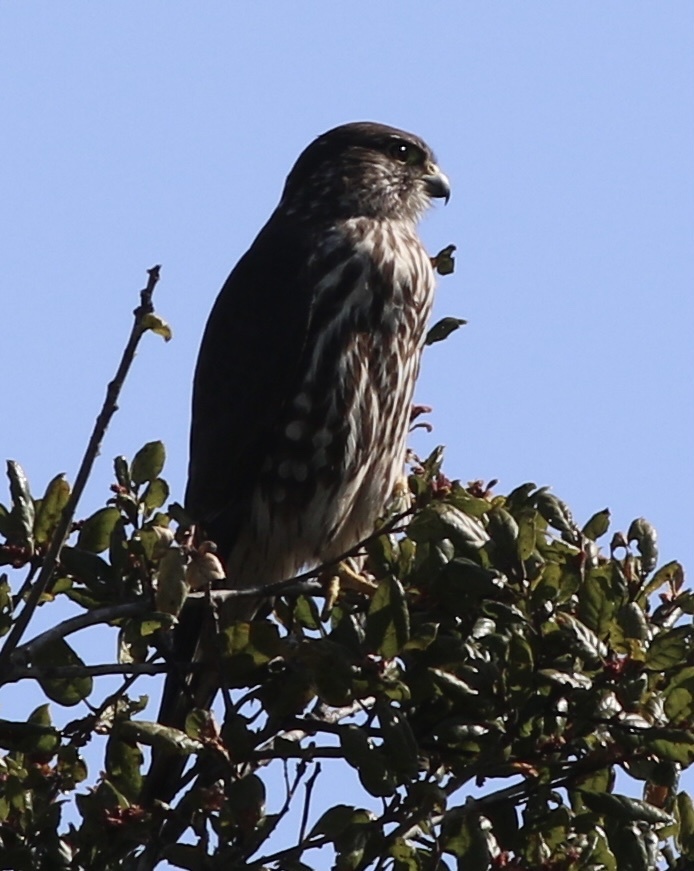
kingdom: Animalia
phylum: Chordata
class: Aves
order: Falconiformes
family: Falconidae
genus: Falco
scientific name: Falco columbarius
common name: Merlin
